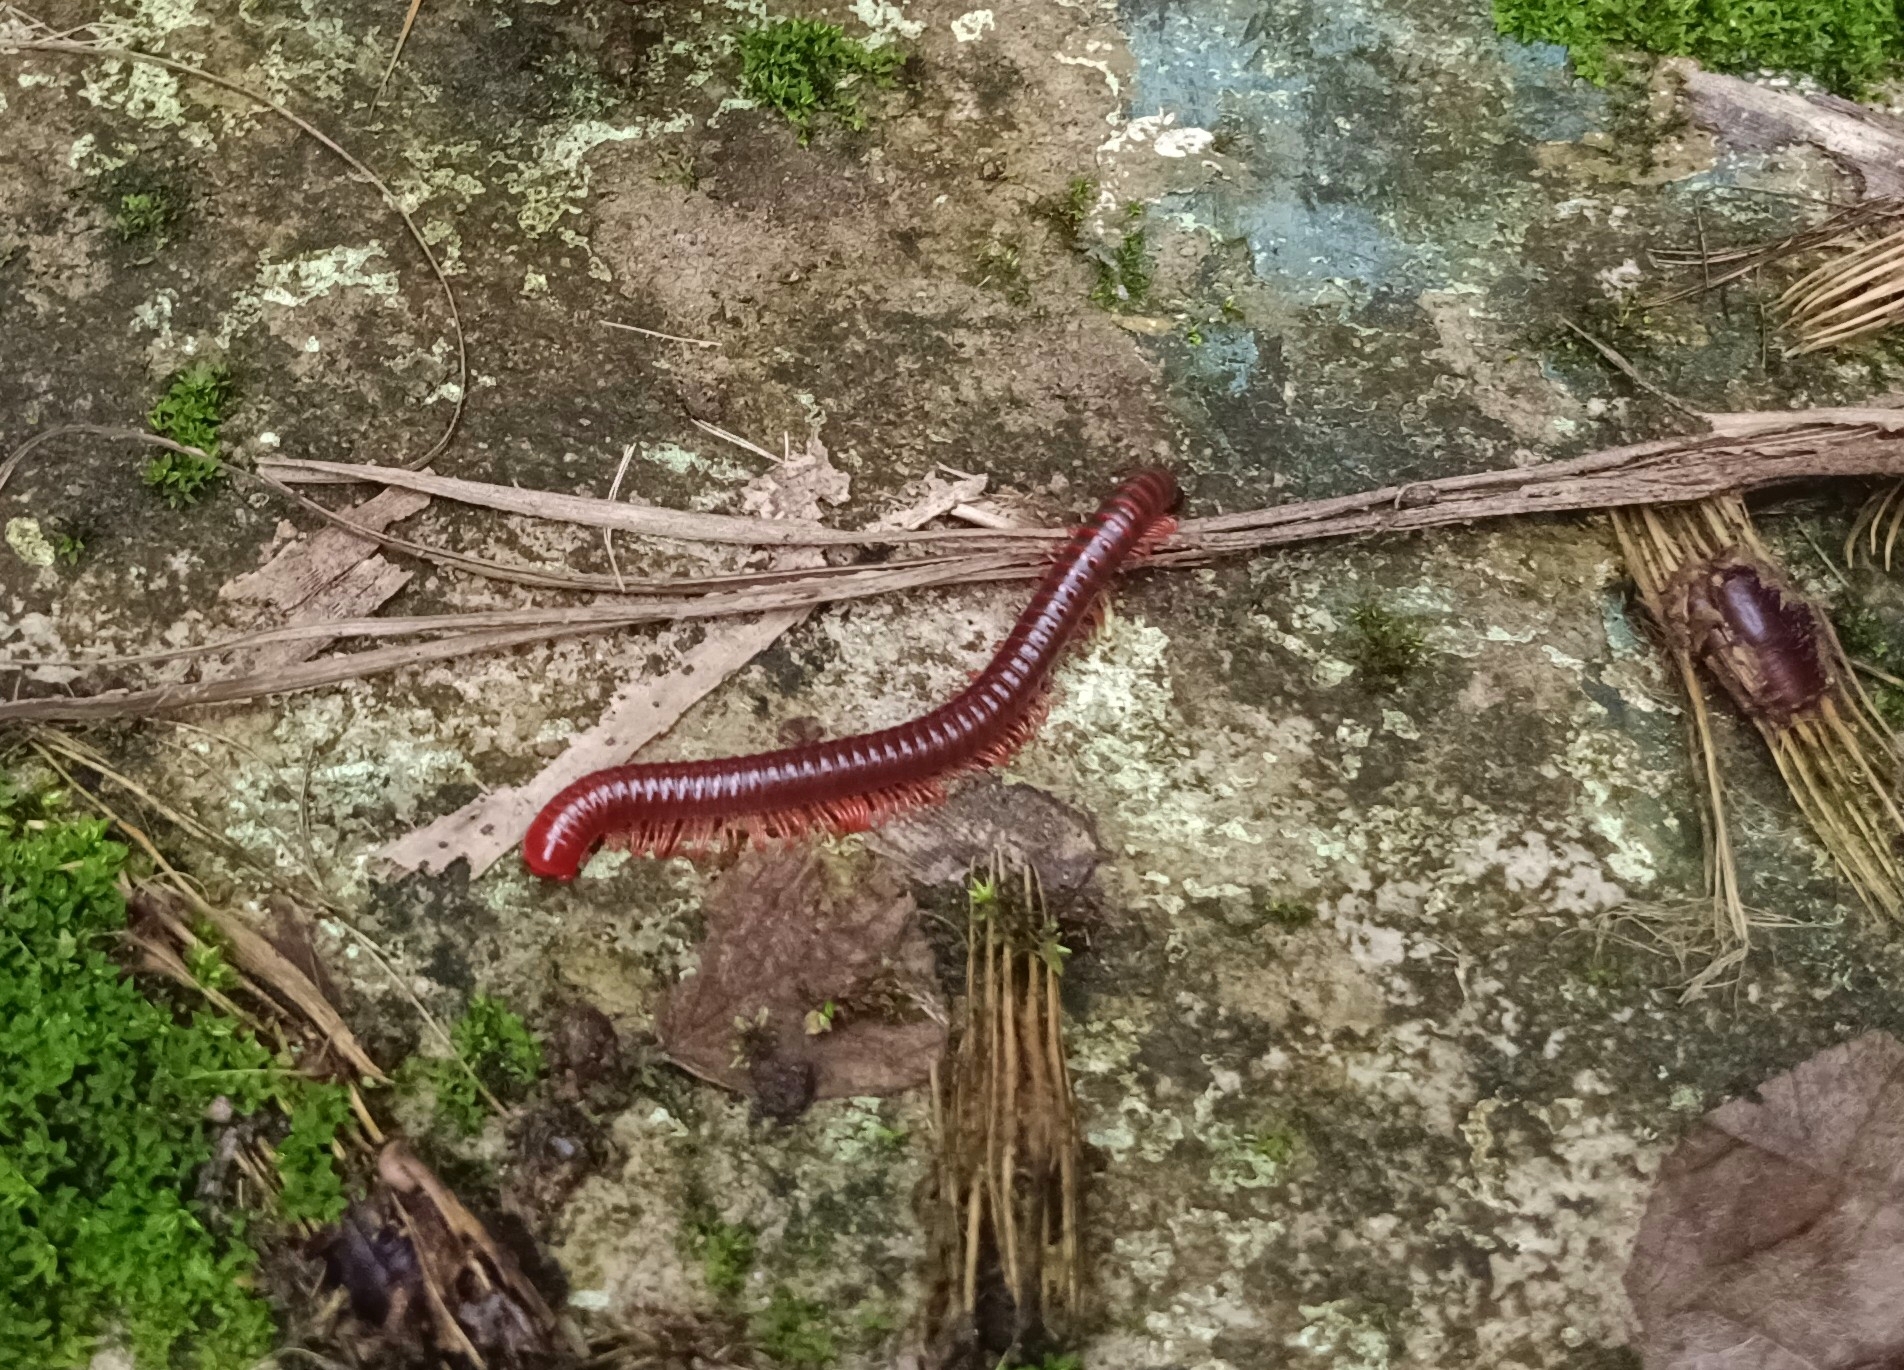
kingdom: Animalia
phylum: Arthropoda
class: Diplopoda
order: Spirobolida
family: Pachybolidae
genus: Trigoniulus
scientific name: Trigoniulus corallinus
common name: Millipede
